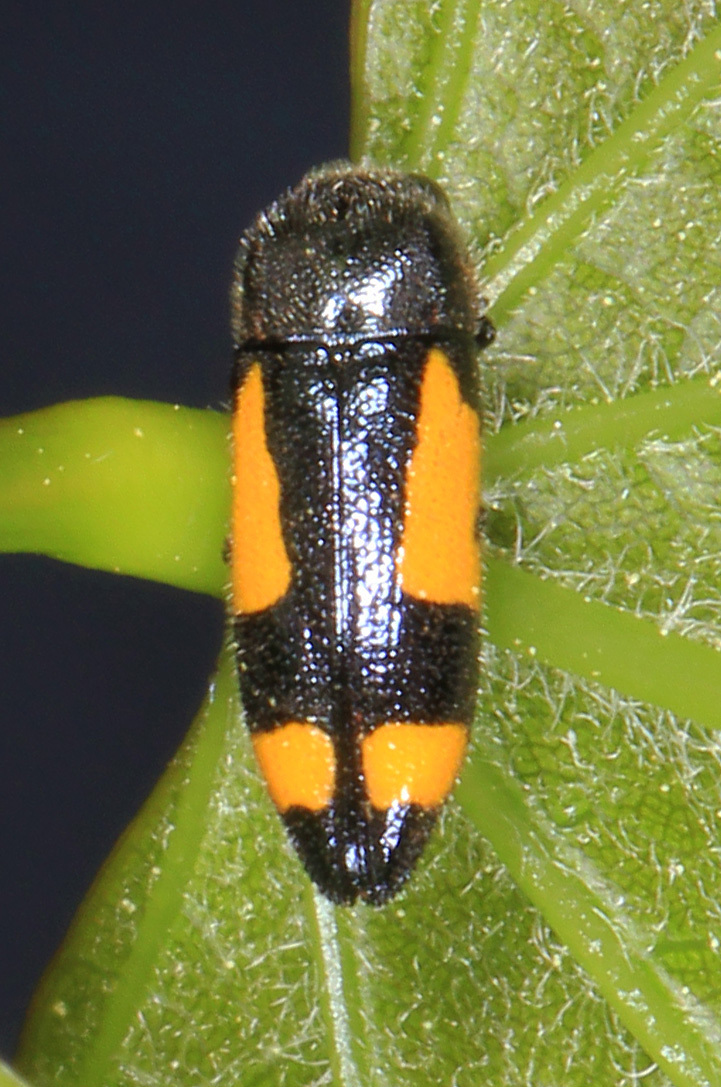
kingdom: Animalia
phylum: Arthropoda
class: Insecta
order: Coleoptera
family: Buprestidae
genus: Ptosima
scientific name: Ptosima gibbicollis
